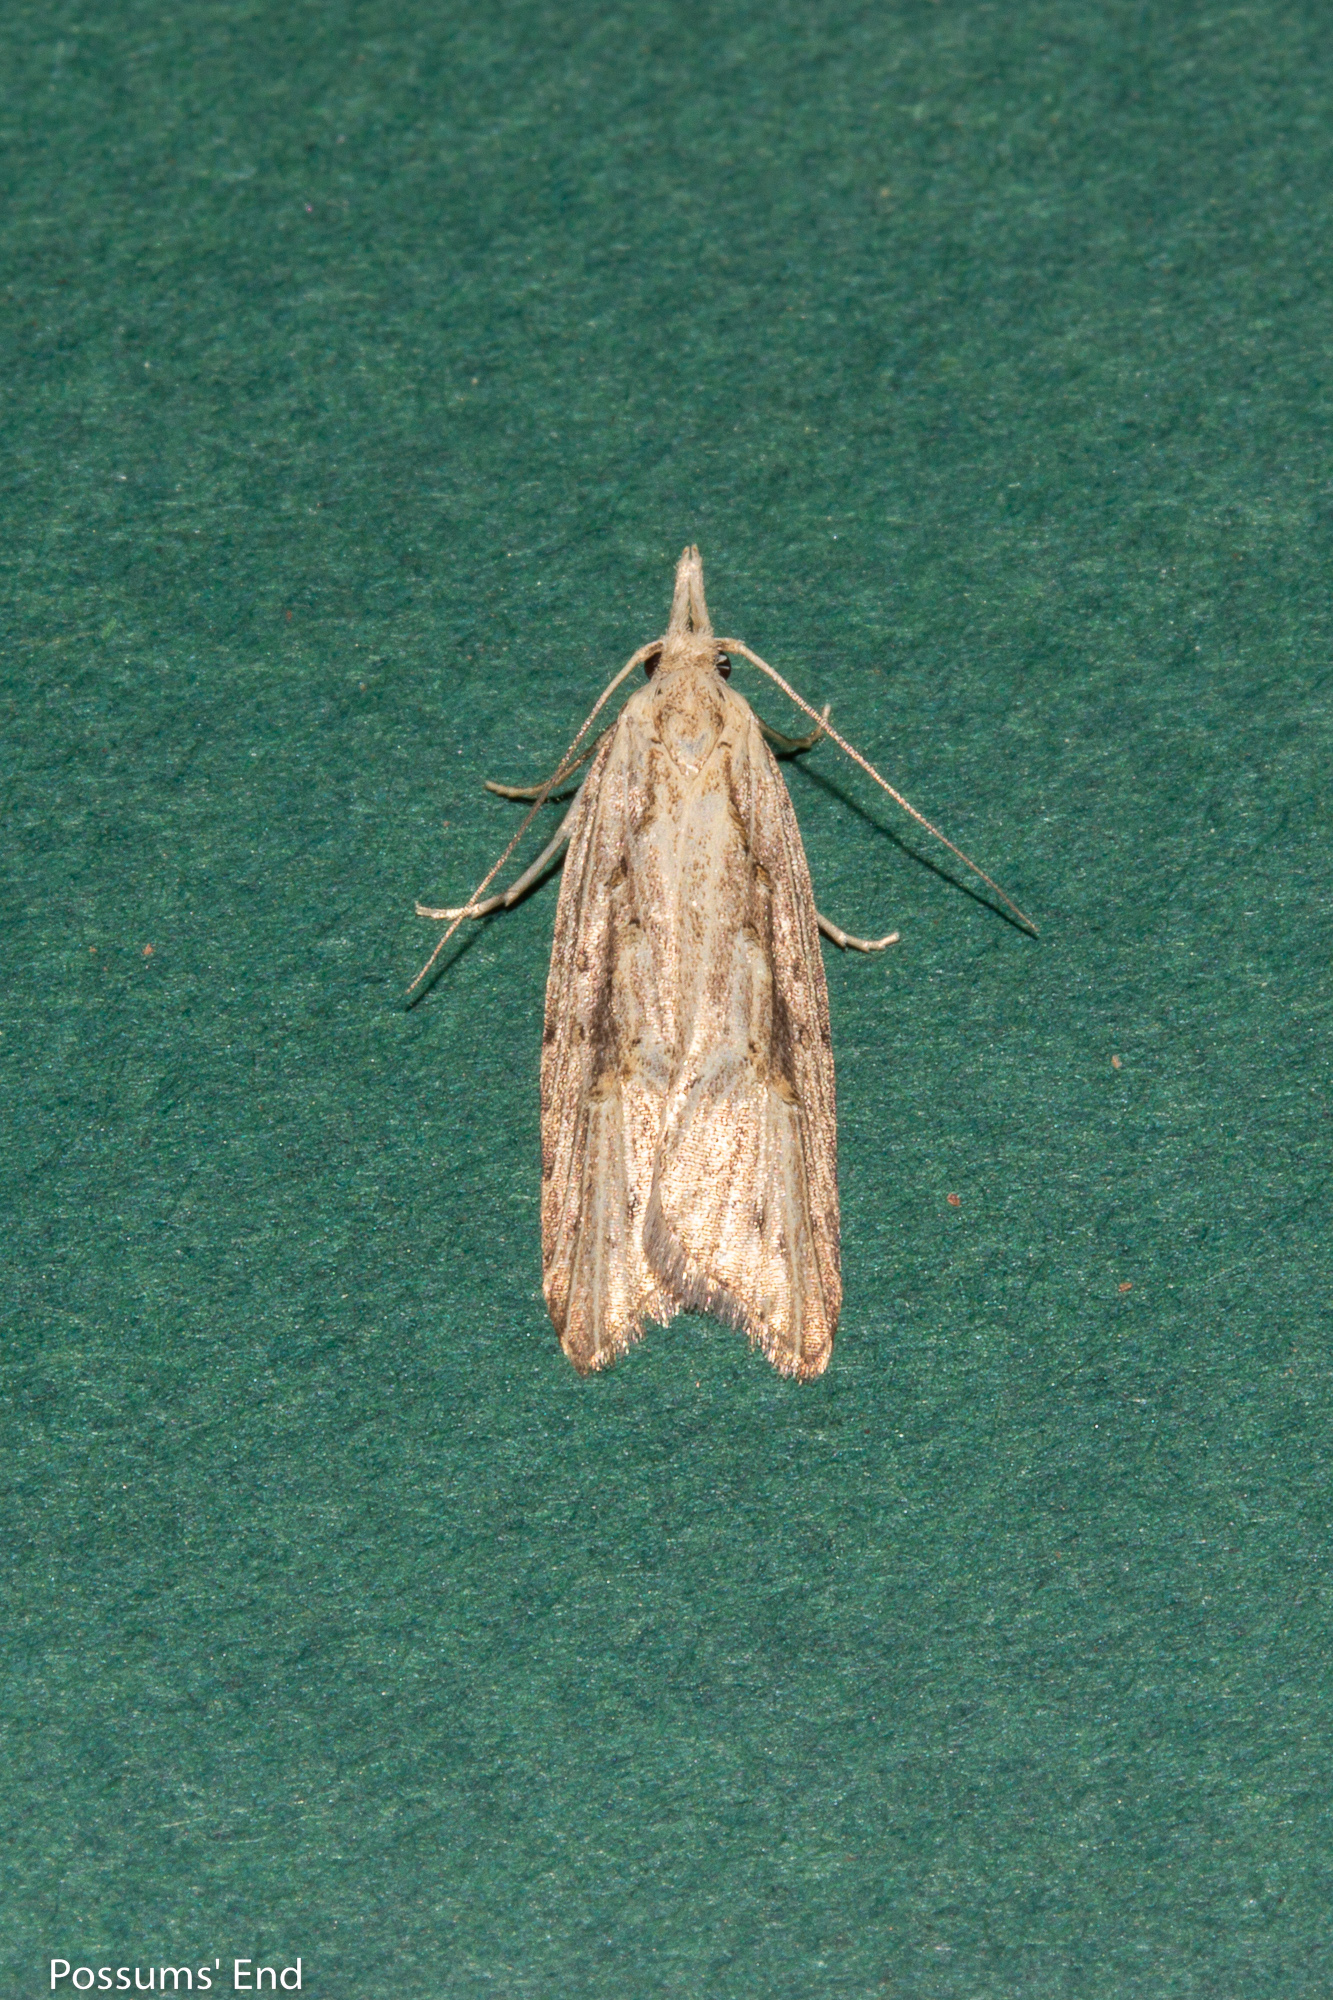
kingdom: Animalia
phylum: Arthropoda
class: Insecta
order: Lepidoptera
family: Carposinidae
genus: Carposina
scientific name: Carposina Heterocrossa exochana
